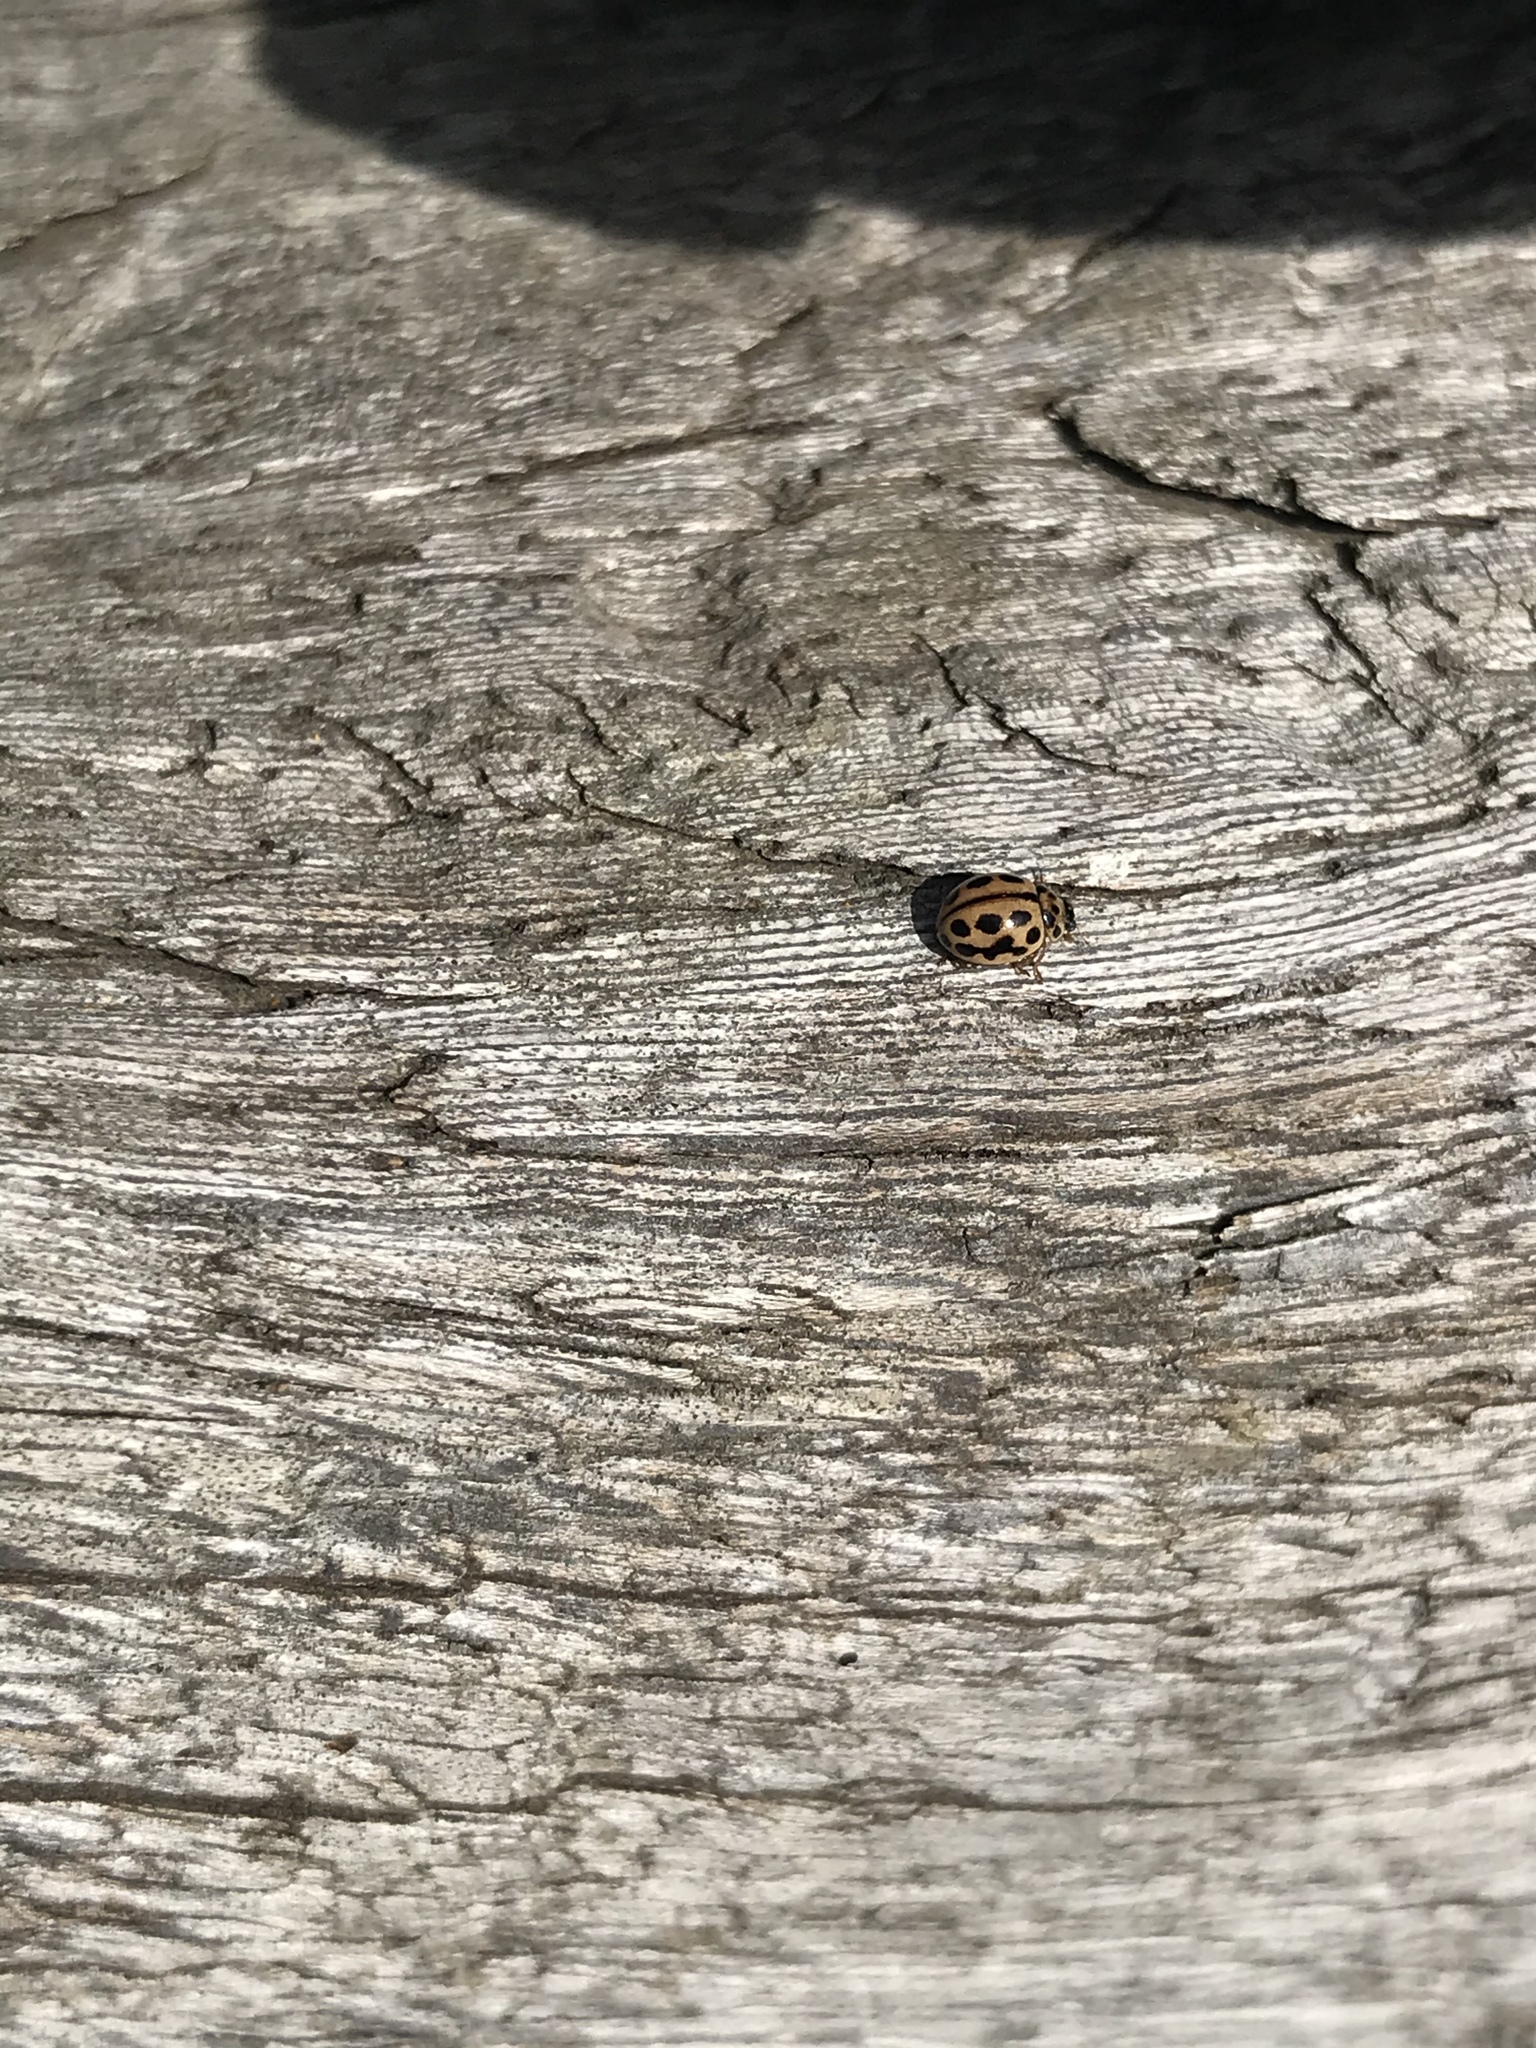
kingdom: Animalia
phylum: Arthropoda
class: Insecta
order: Coleoptera
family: Coccinellidae
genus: Tytthaspis
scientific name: Tytthaspis sedecimpunctata
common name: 16-spot ladybird
